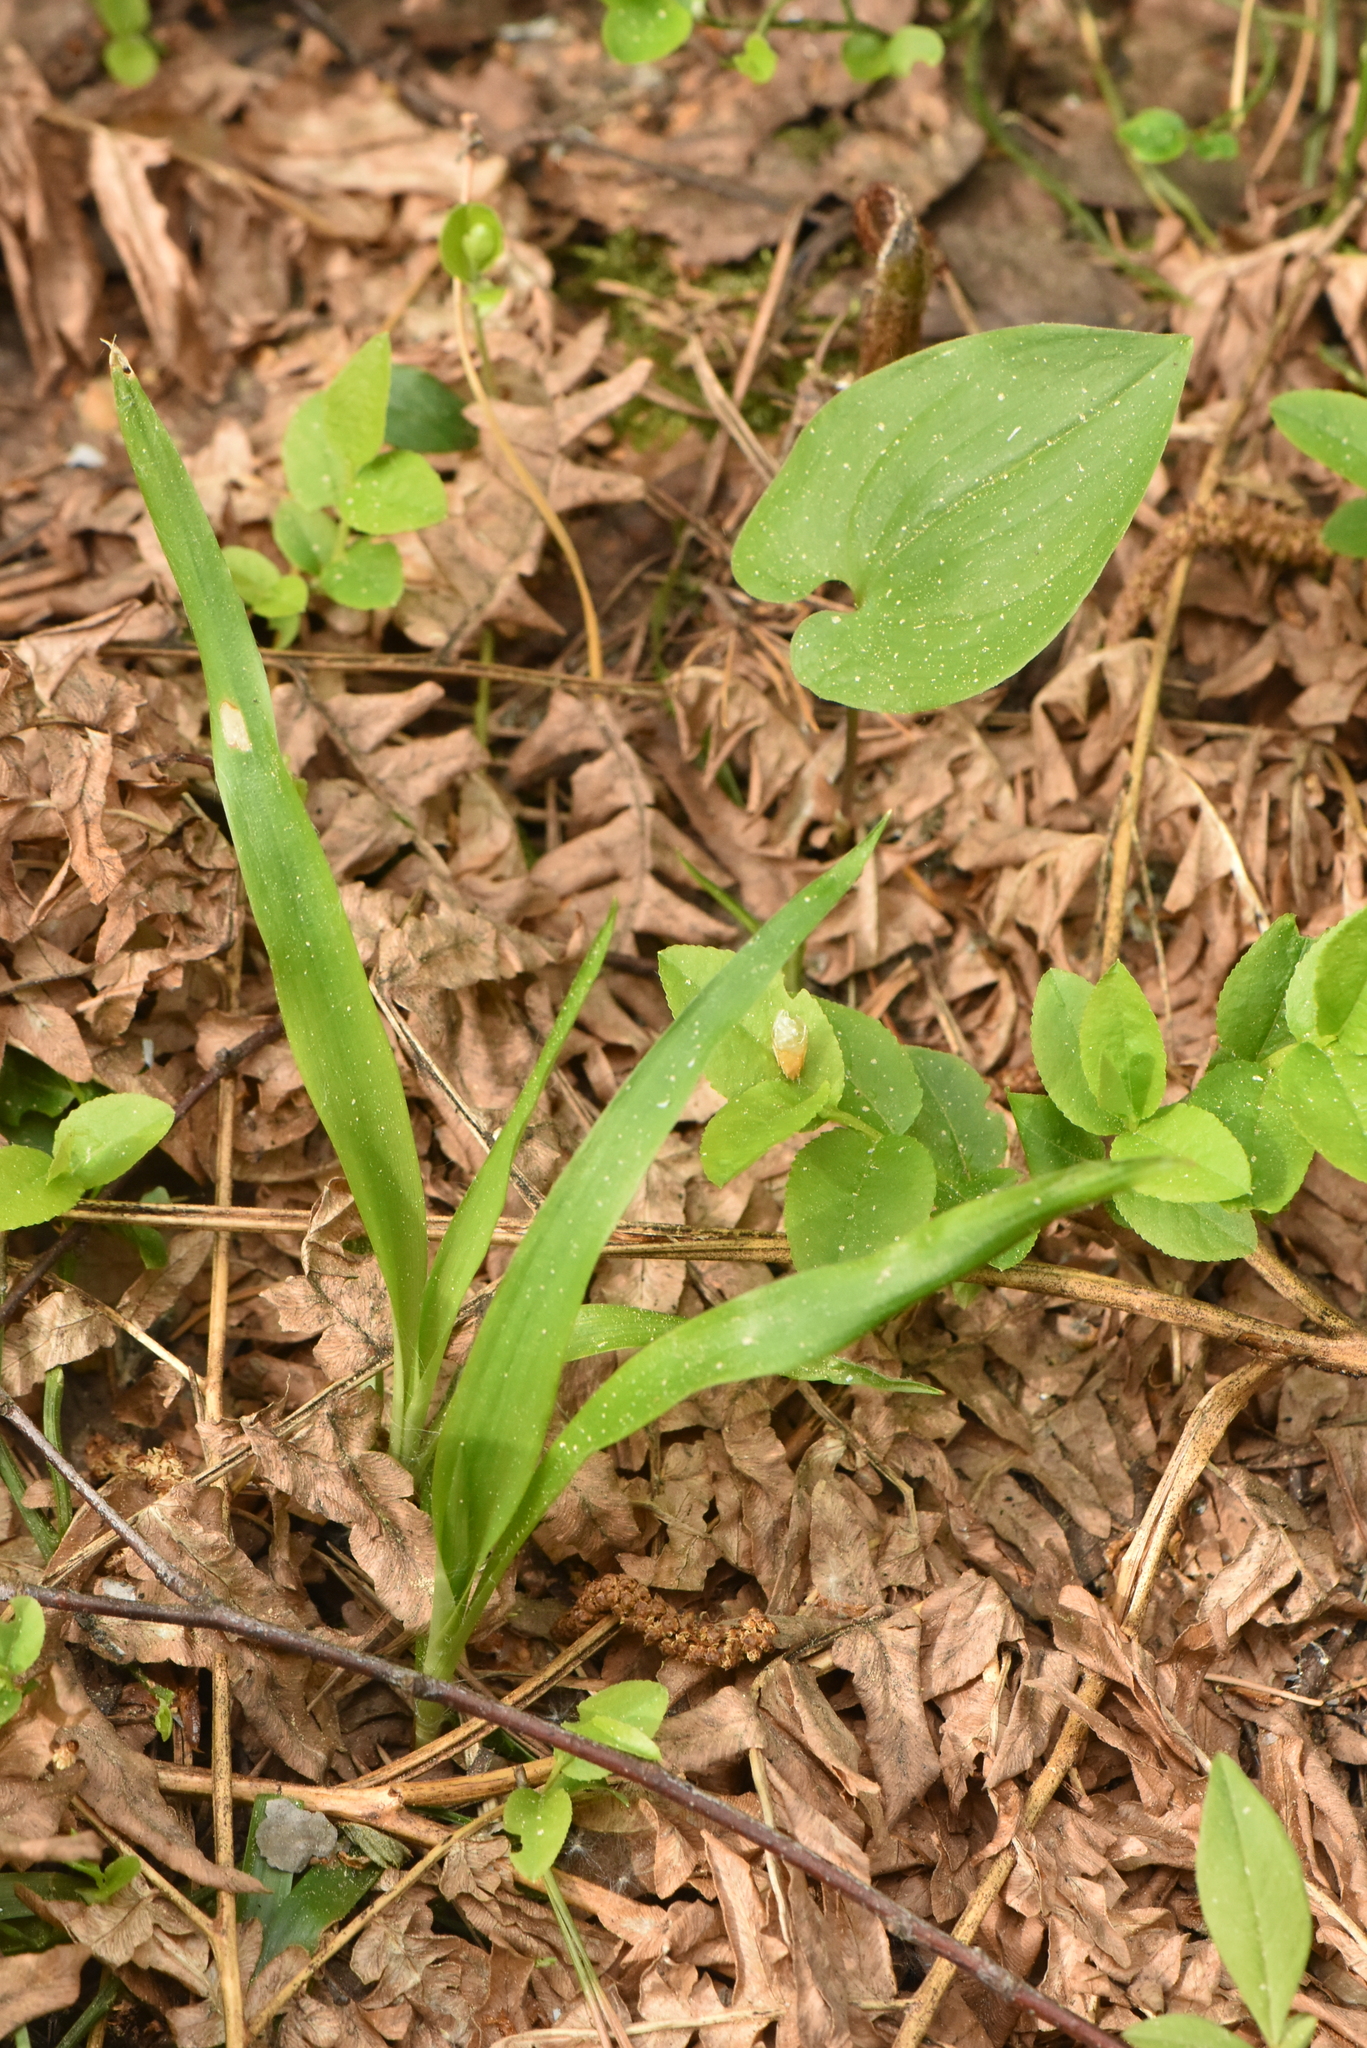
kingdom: Plantae
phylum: Tracheophyta
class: Liliopsida
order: Poales
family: Juncaceae
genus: Luzula
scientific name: Luzula pilosa
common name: Hairy wood-rush
